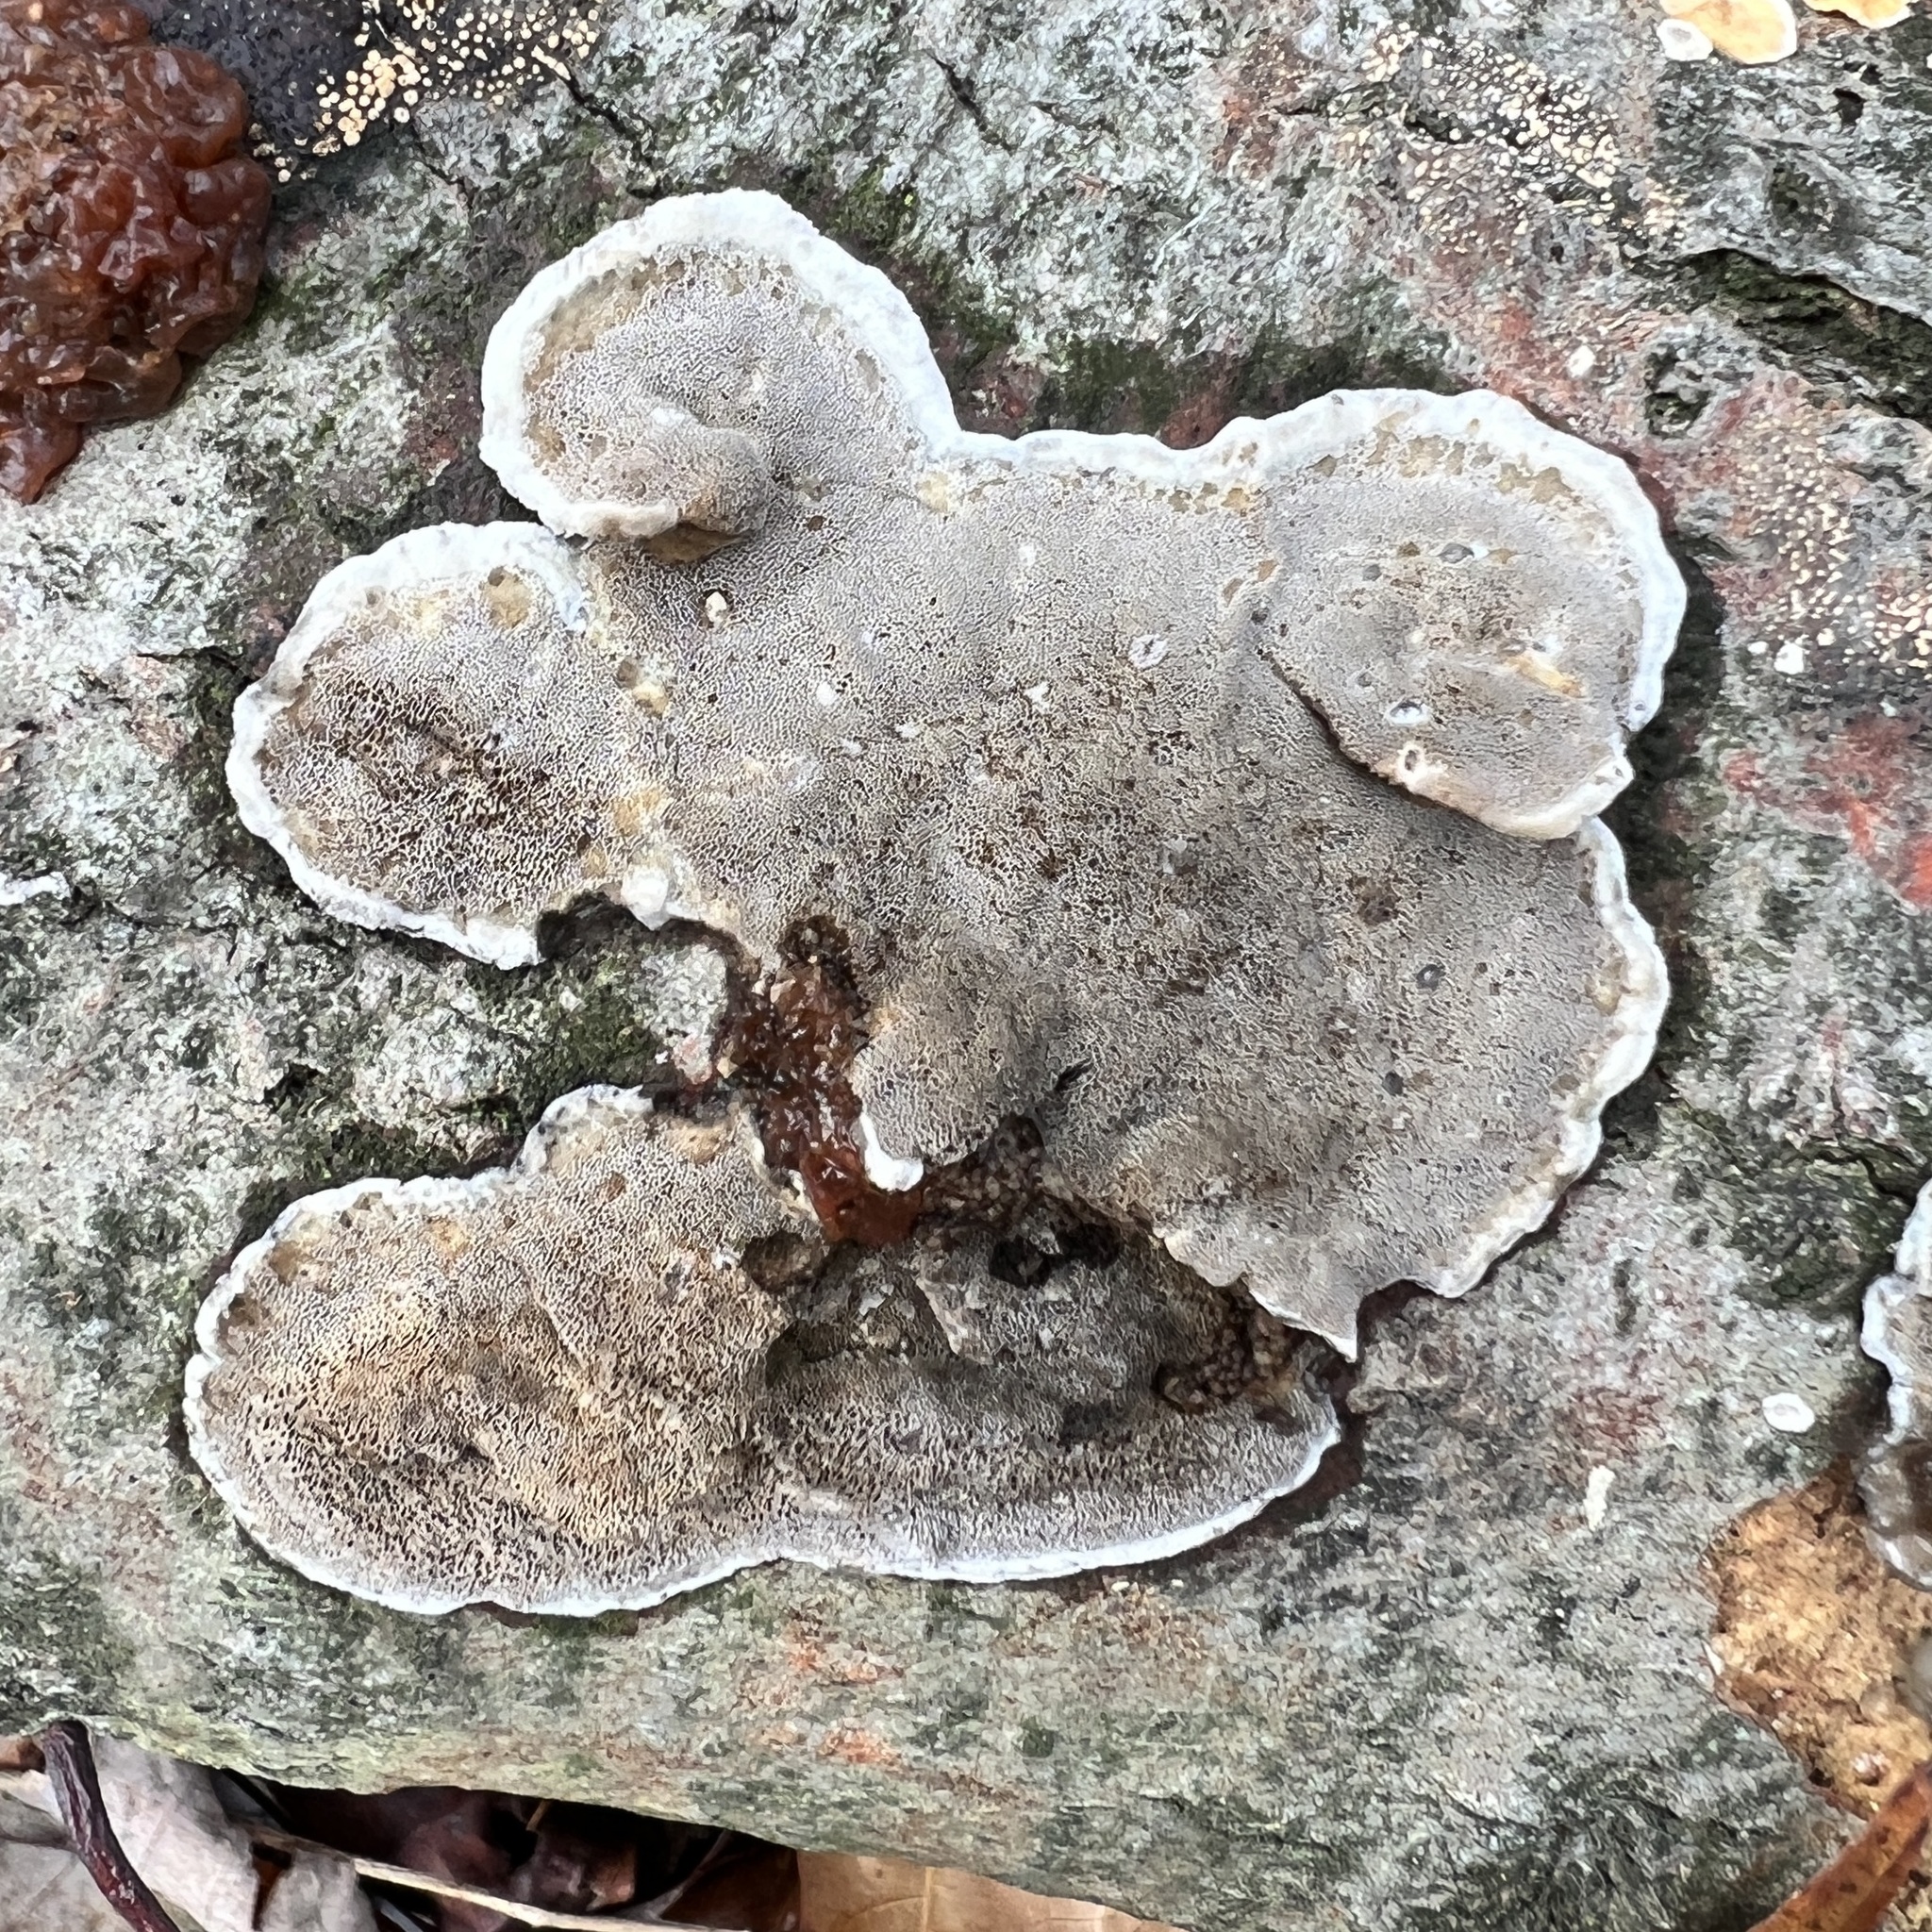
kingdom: Fungi
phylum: Basidiomycota
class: Agaricomycetes
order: Polyporales
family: Polyporaceae
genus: Podofomes
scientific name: Podofomes mollis
